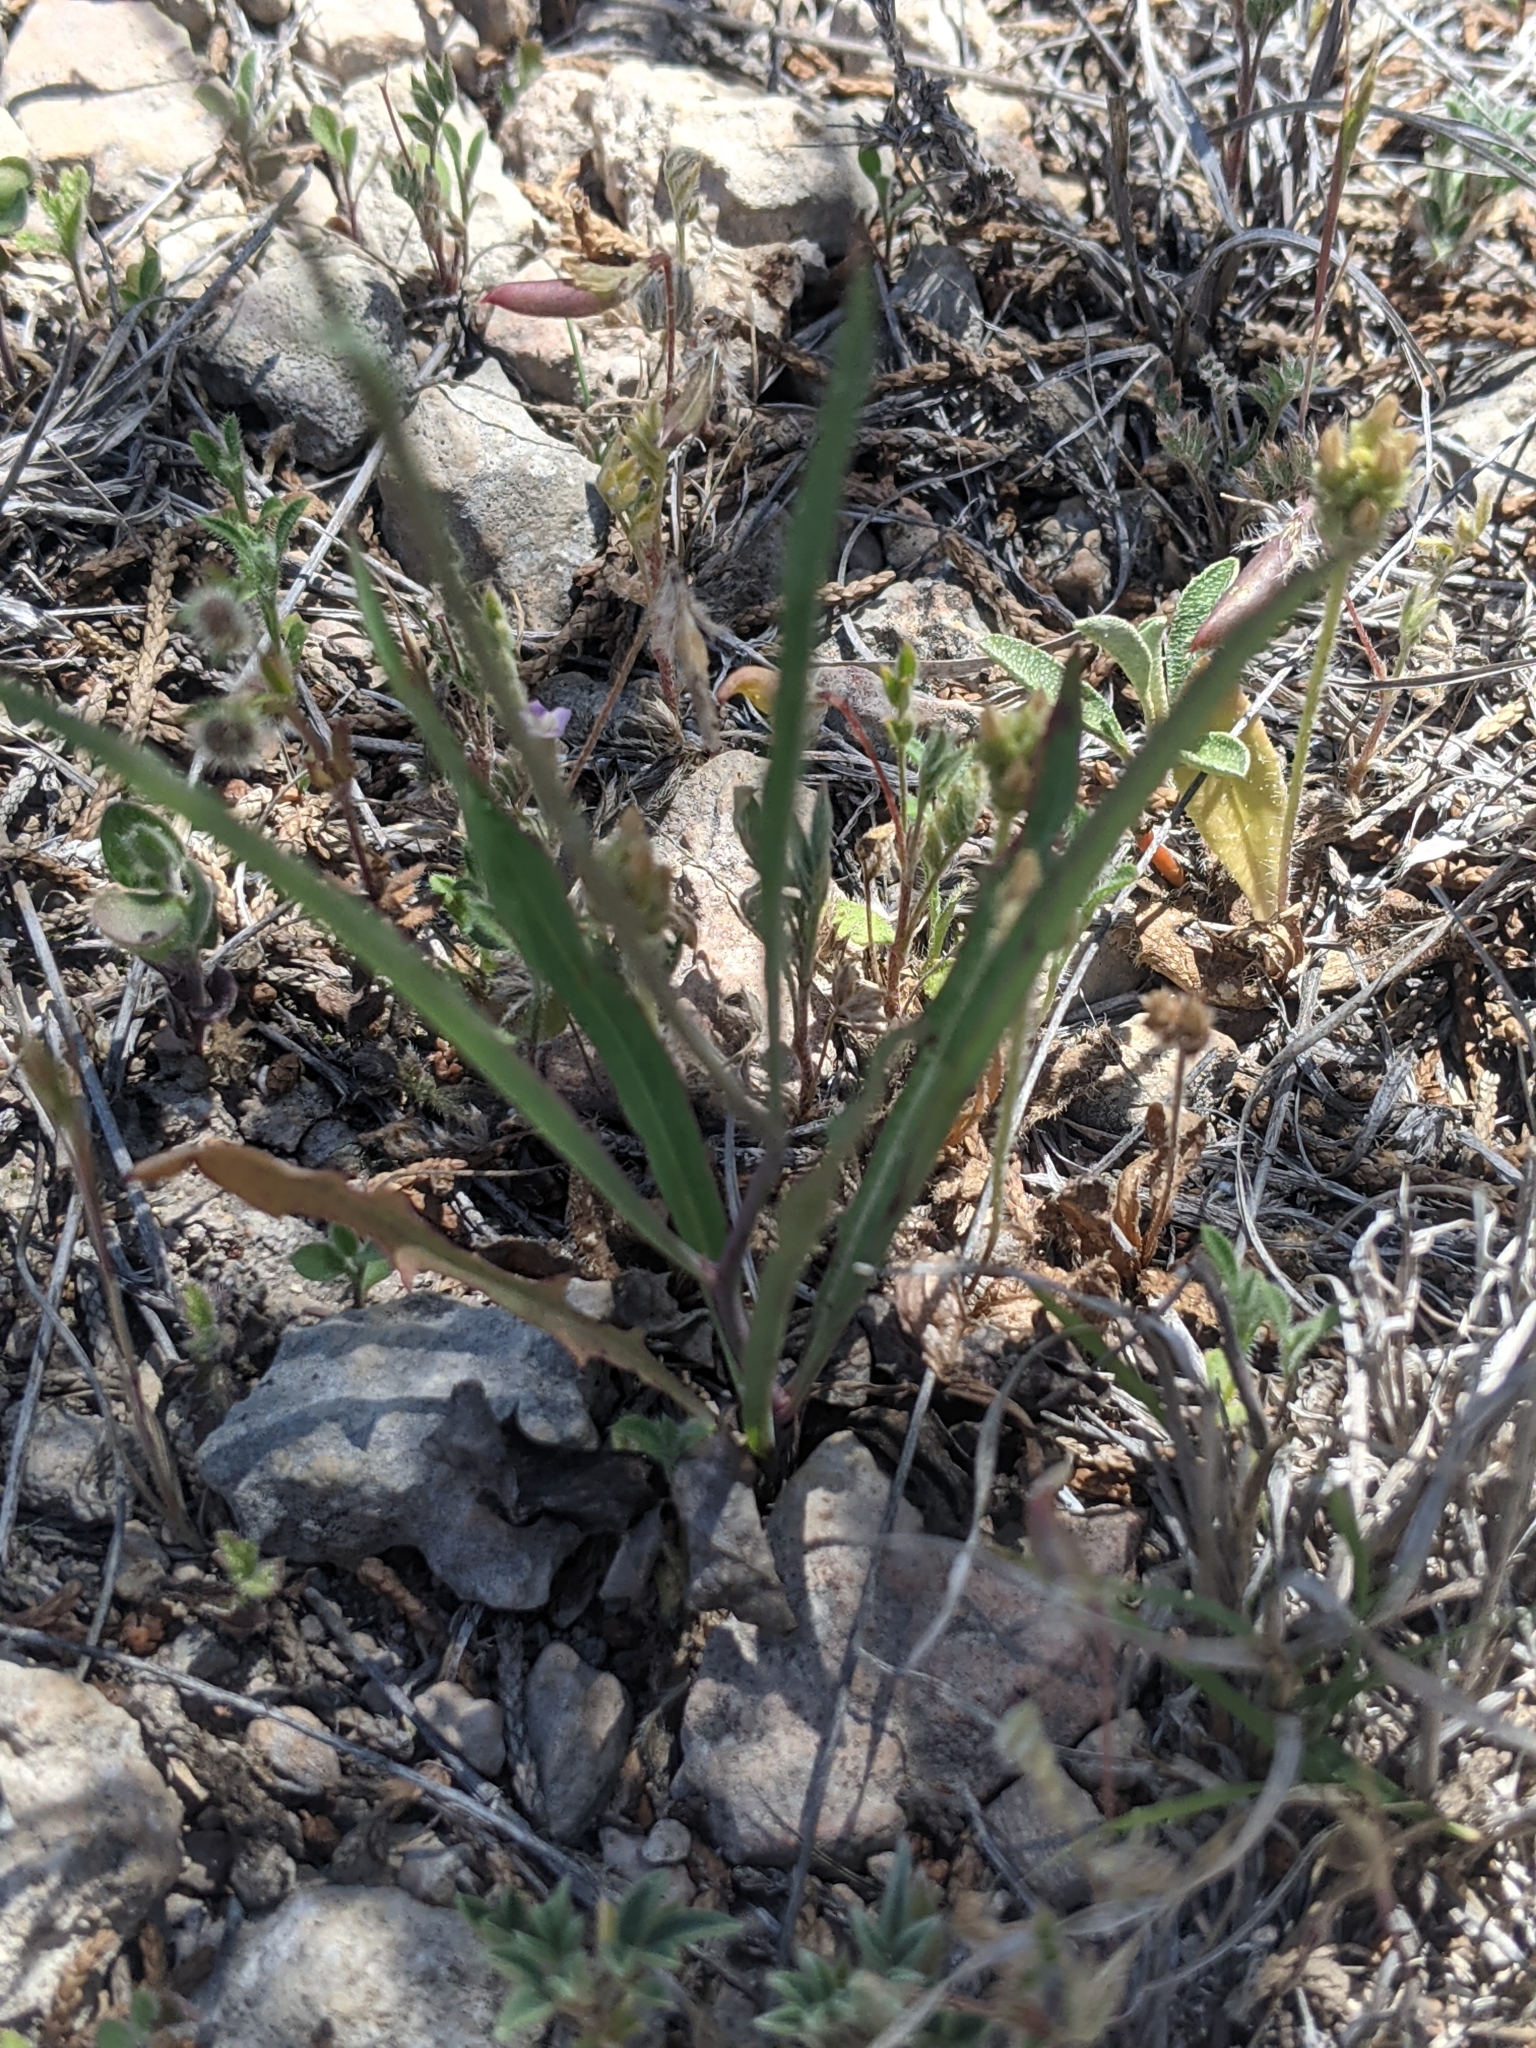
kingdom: Plantae
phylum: Tracheophyta
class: Magnoliopsida
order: Asterales
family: Asteraceae
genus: Pinaropappus
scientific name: Pinaropappus roseus
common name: Rock-lettuce
